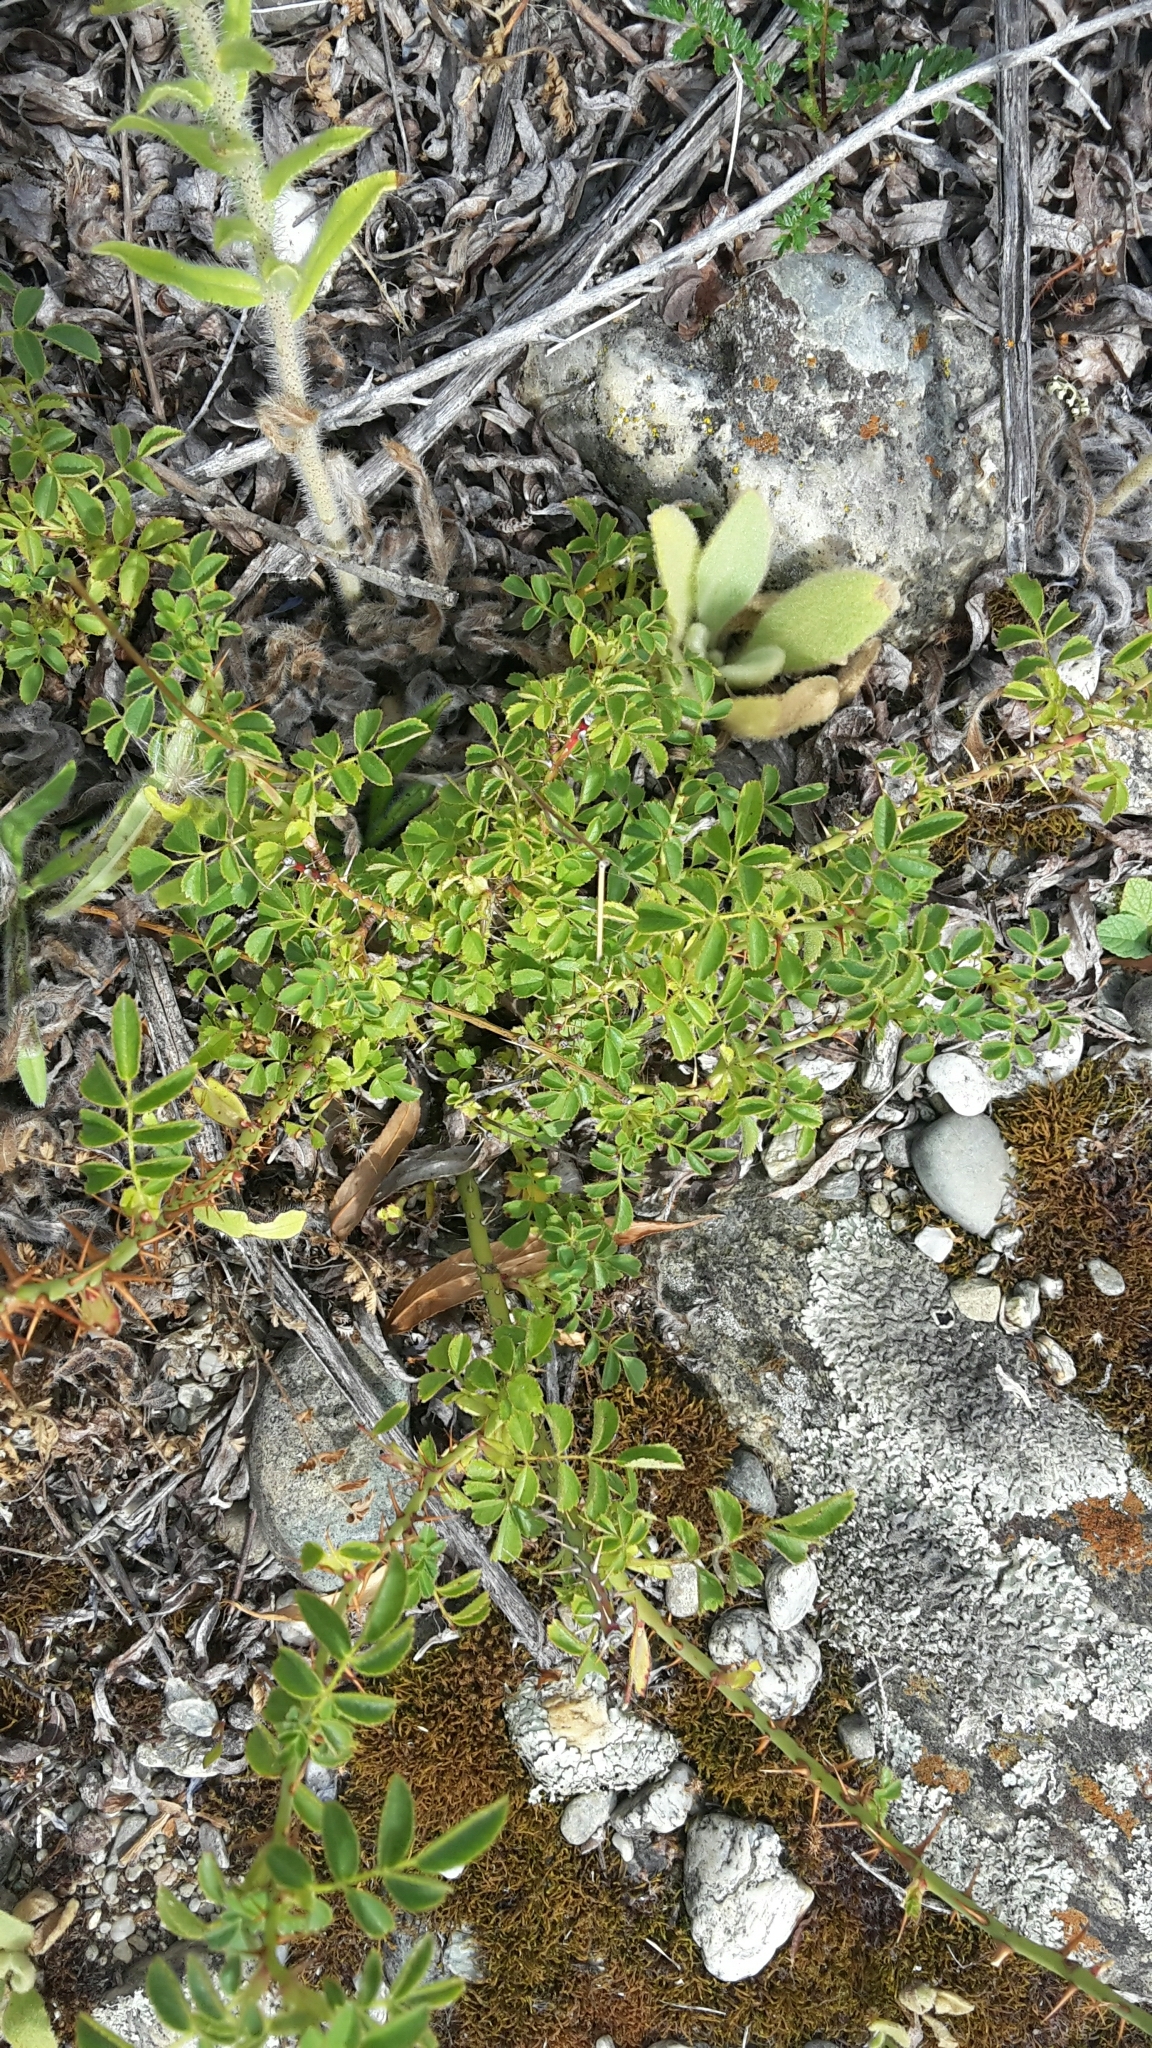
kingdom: Plantae
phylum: Tracheophyta
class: Magnoliopsida
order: Rosales
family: Rosaceae
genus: Rosa
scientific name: Rosa rubiginosa
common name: Sweet-briar
